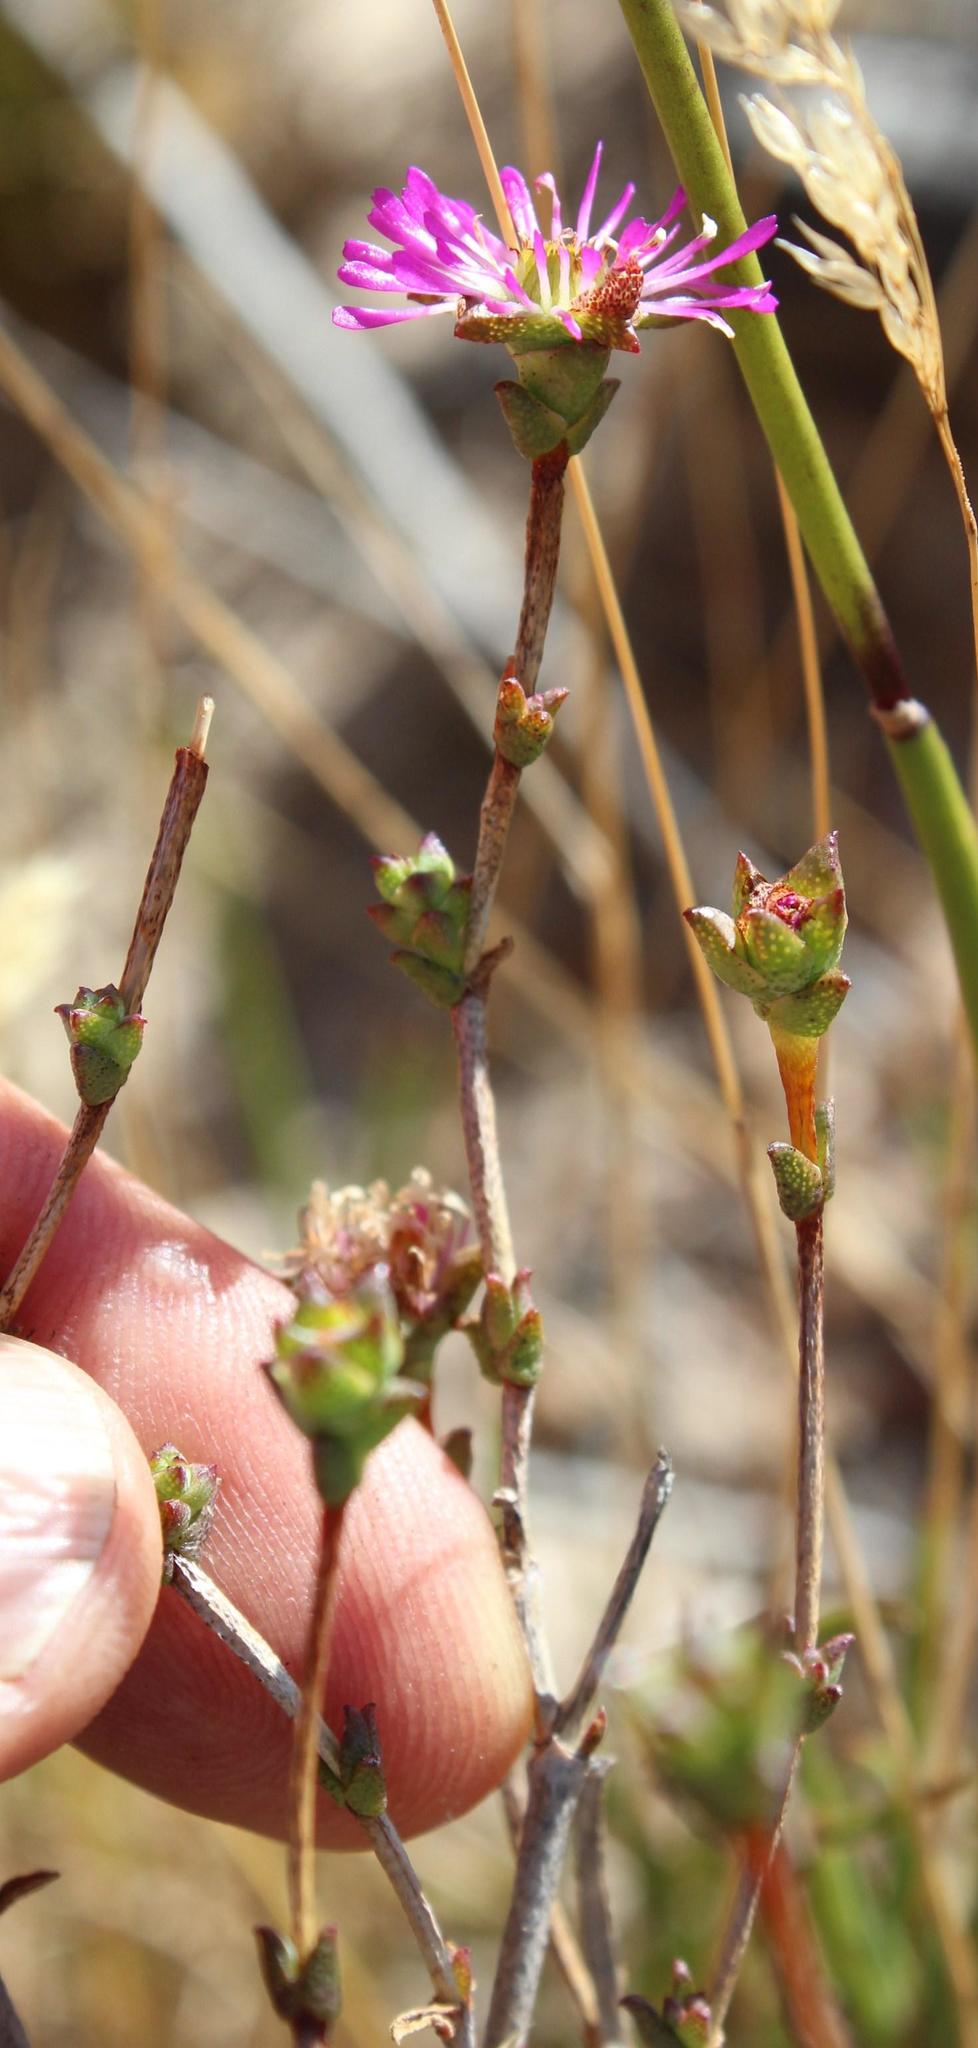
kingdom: Plantae
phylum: Tracheophyta
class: Magnoliopsida
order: Caryophyllales
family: Aizoaceae
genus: Erepsia
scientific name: Erepsia ramosa
